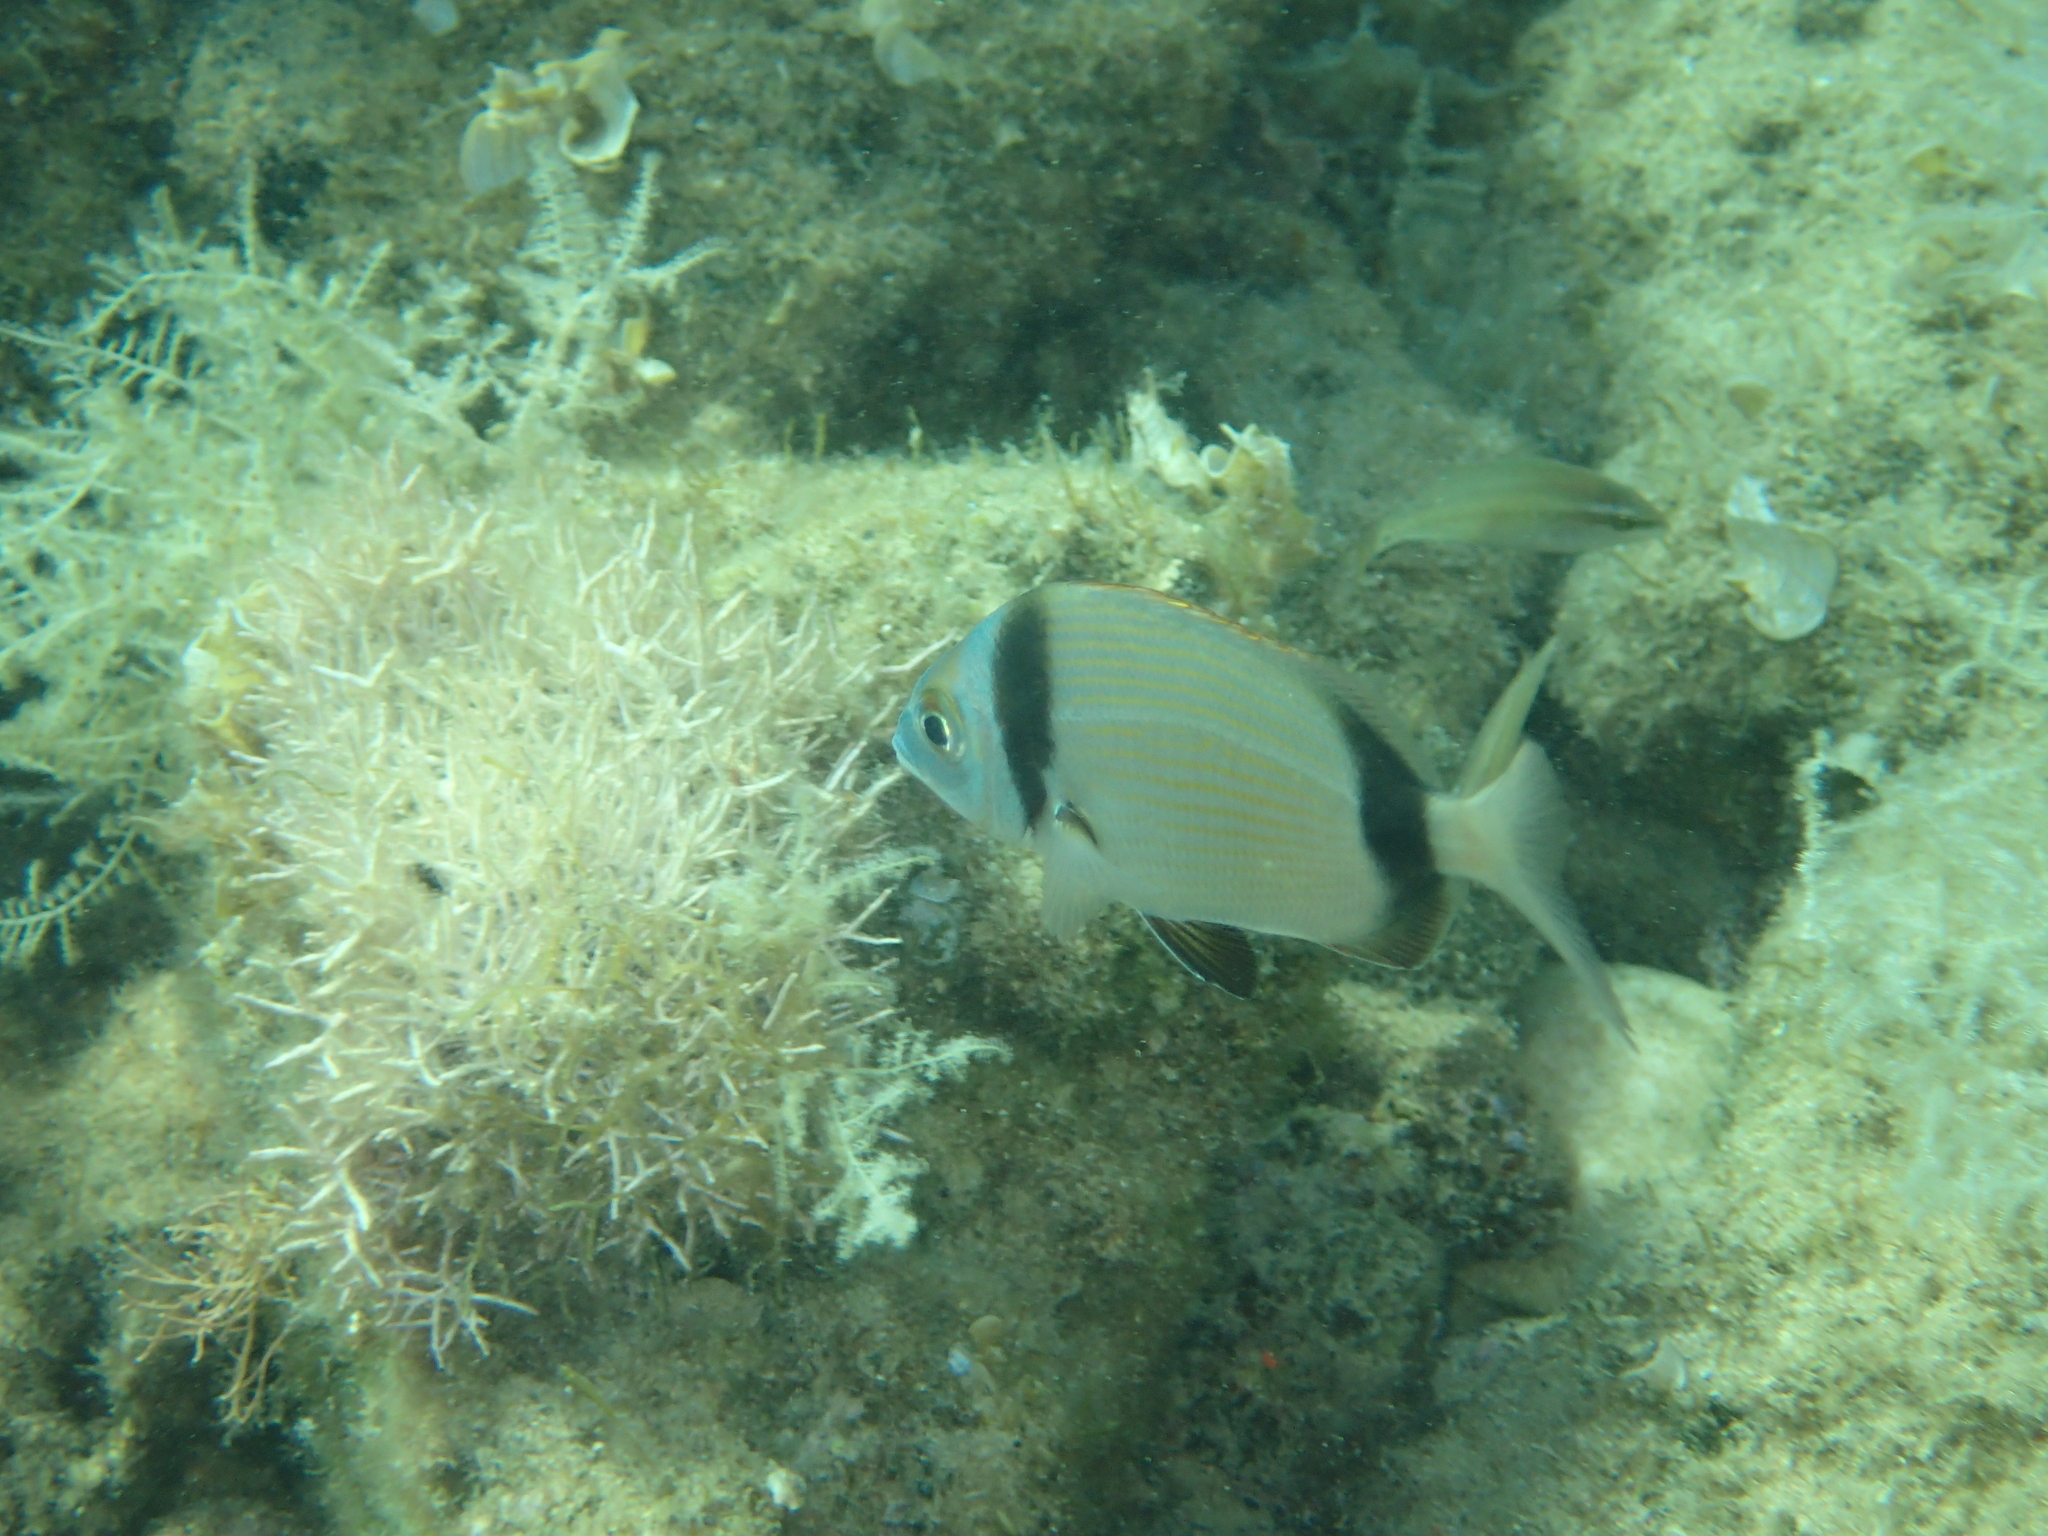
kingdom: Animalia
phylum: Chordata
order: Perciformes
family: Sparidae
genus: Diplodus
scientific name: Diplodus vulgaris
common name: Common two-banded seabream
